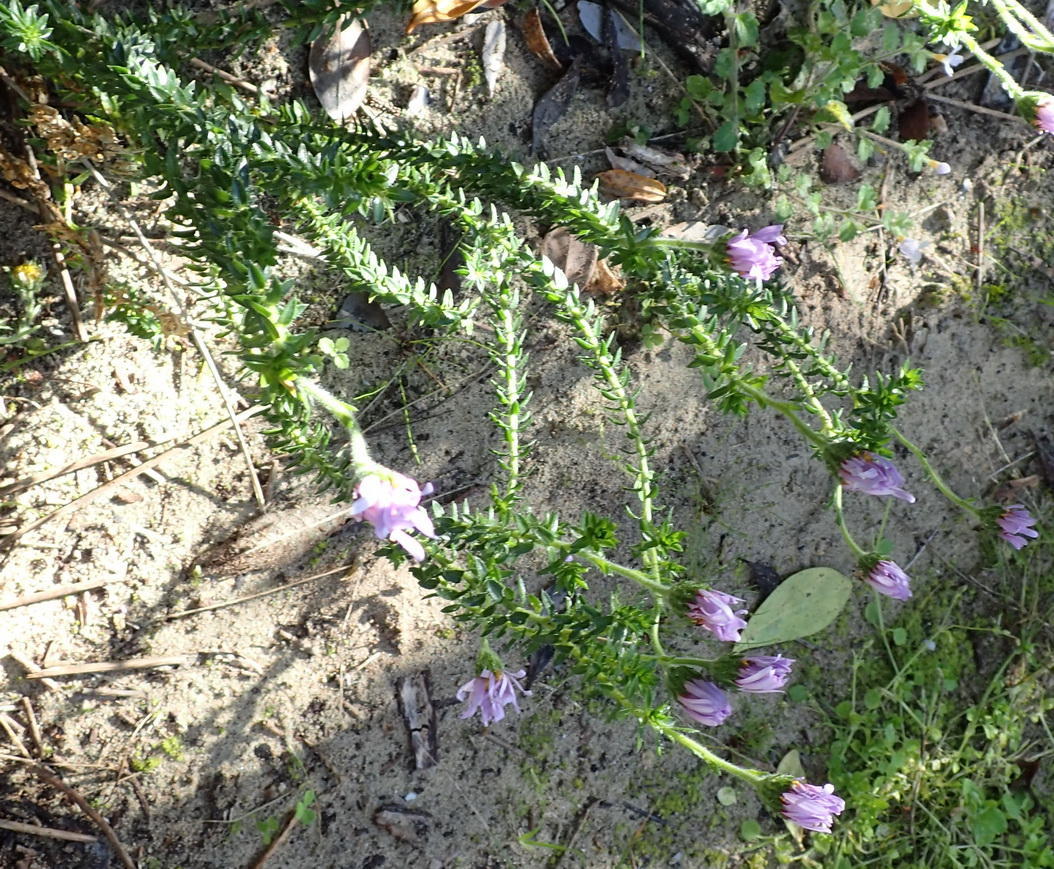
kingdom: Plantae
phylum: Tracheophyta
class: Magnoliopsida
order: Asterales
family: Asteraceae
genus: Felicia
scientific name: Felicia echinata
